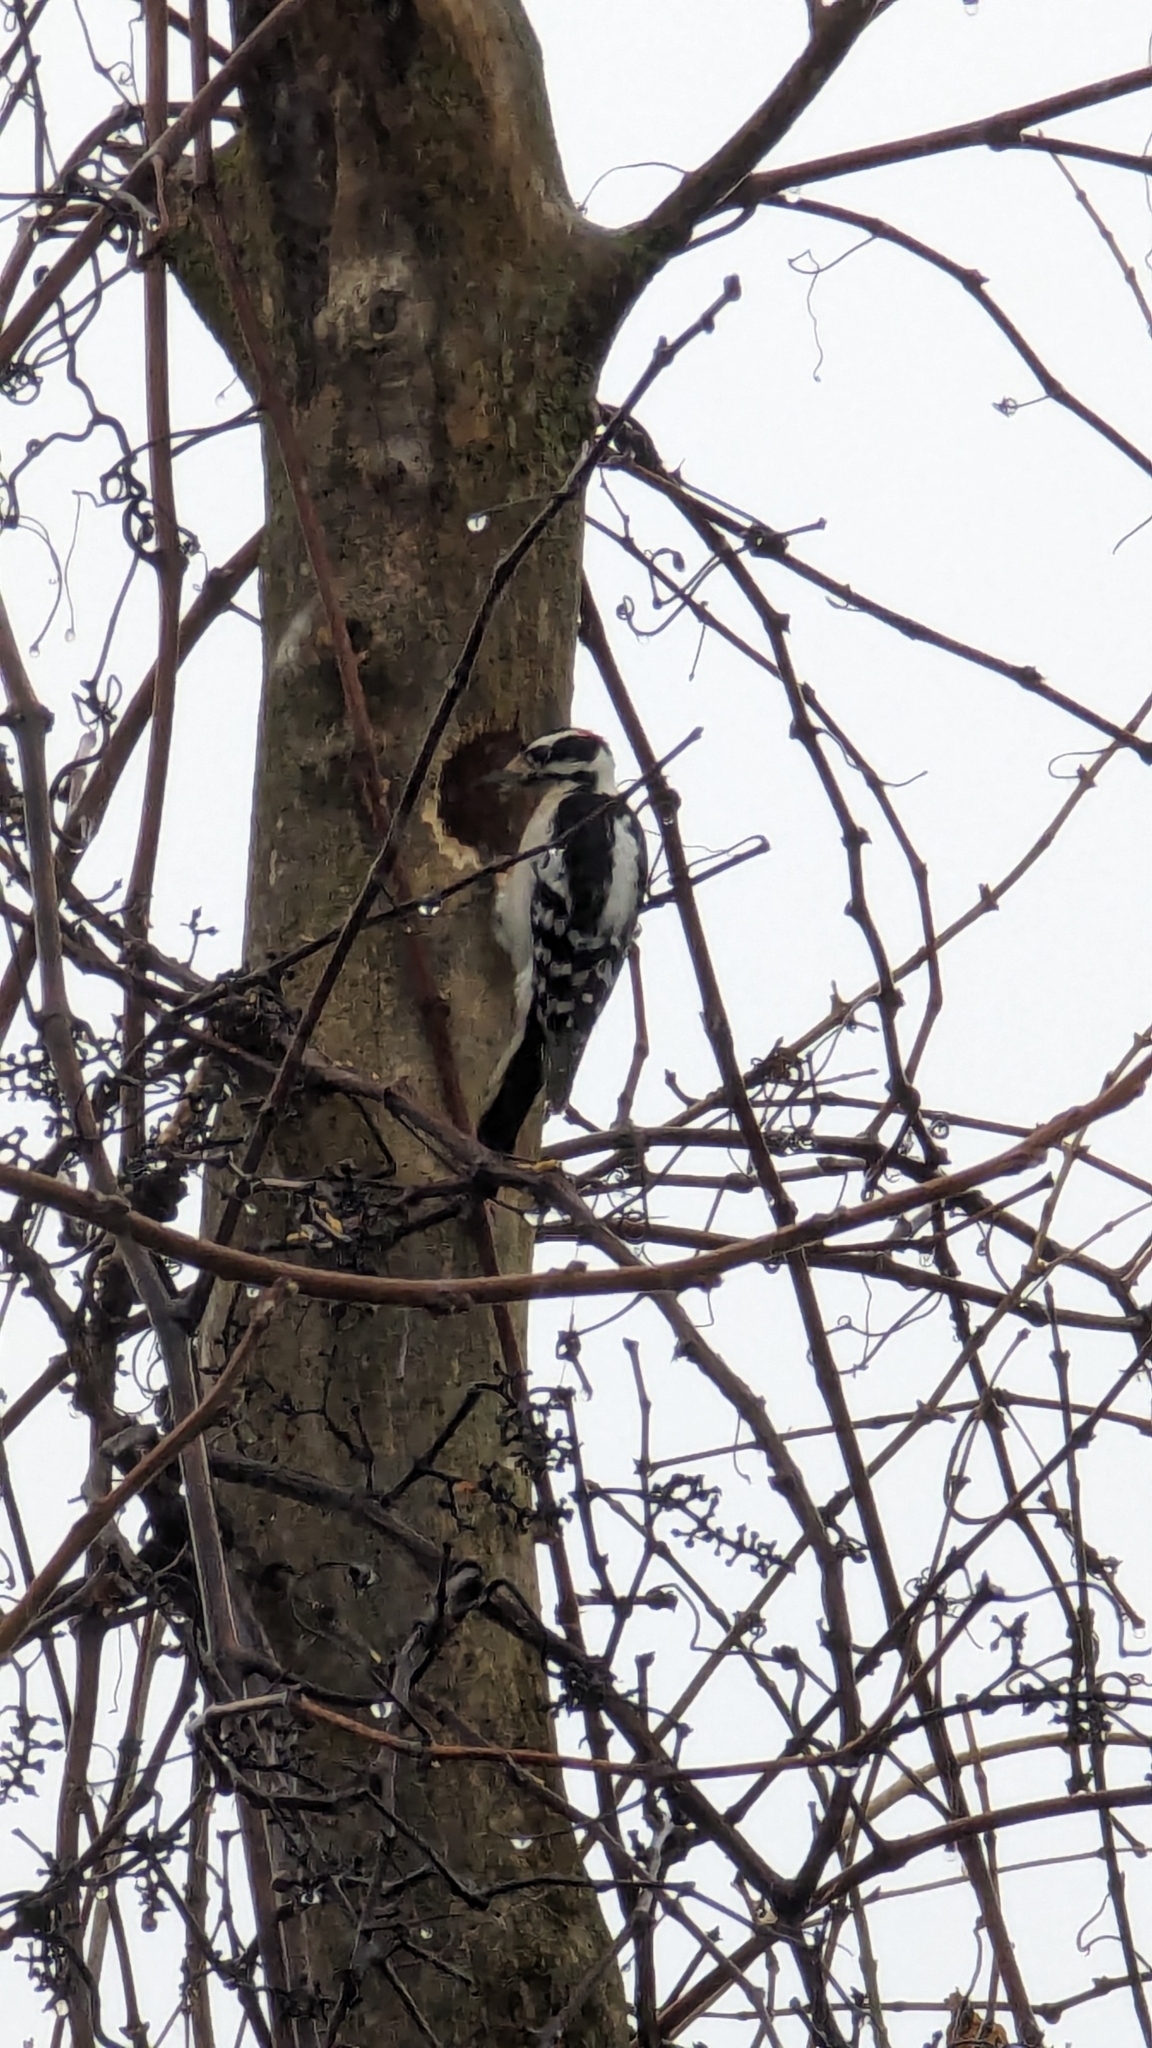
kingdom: Animalia
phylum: Chordata
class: Aves
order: Piciformes
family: Picidae
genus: Dryobates
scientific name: Dryobates pubescens
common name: Downy woodpecker
